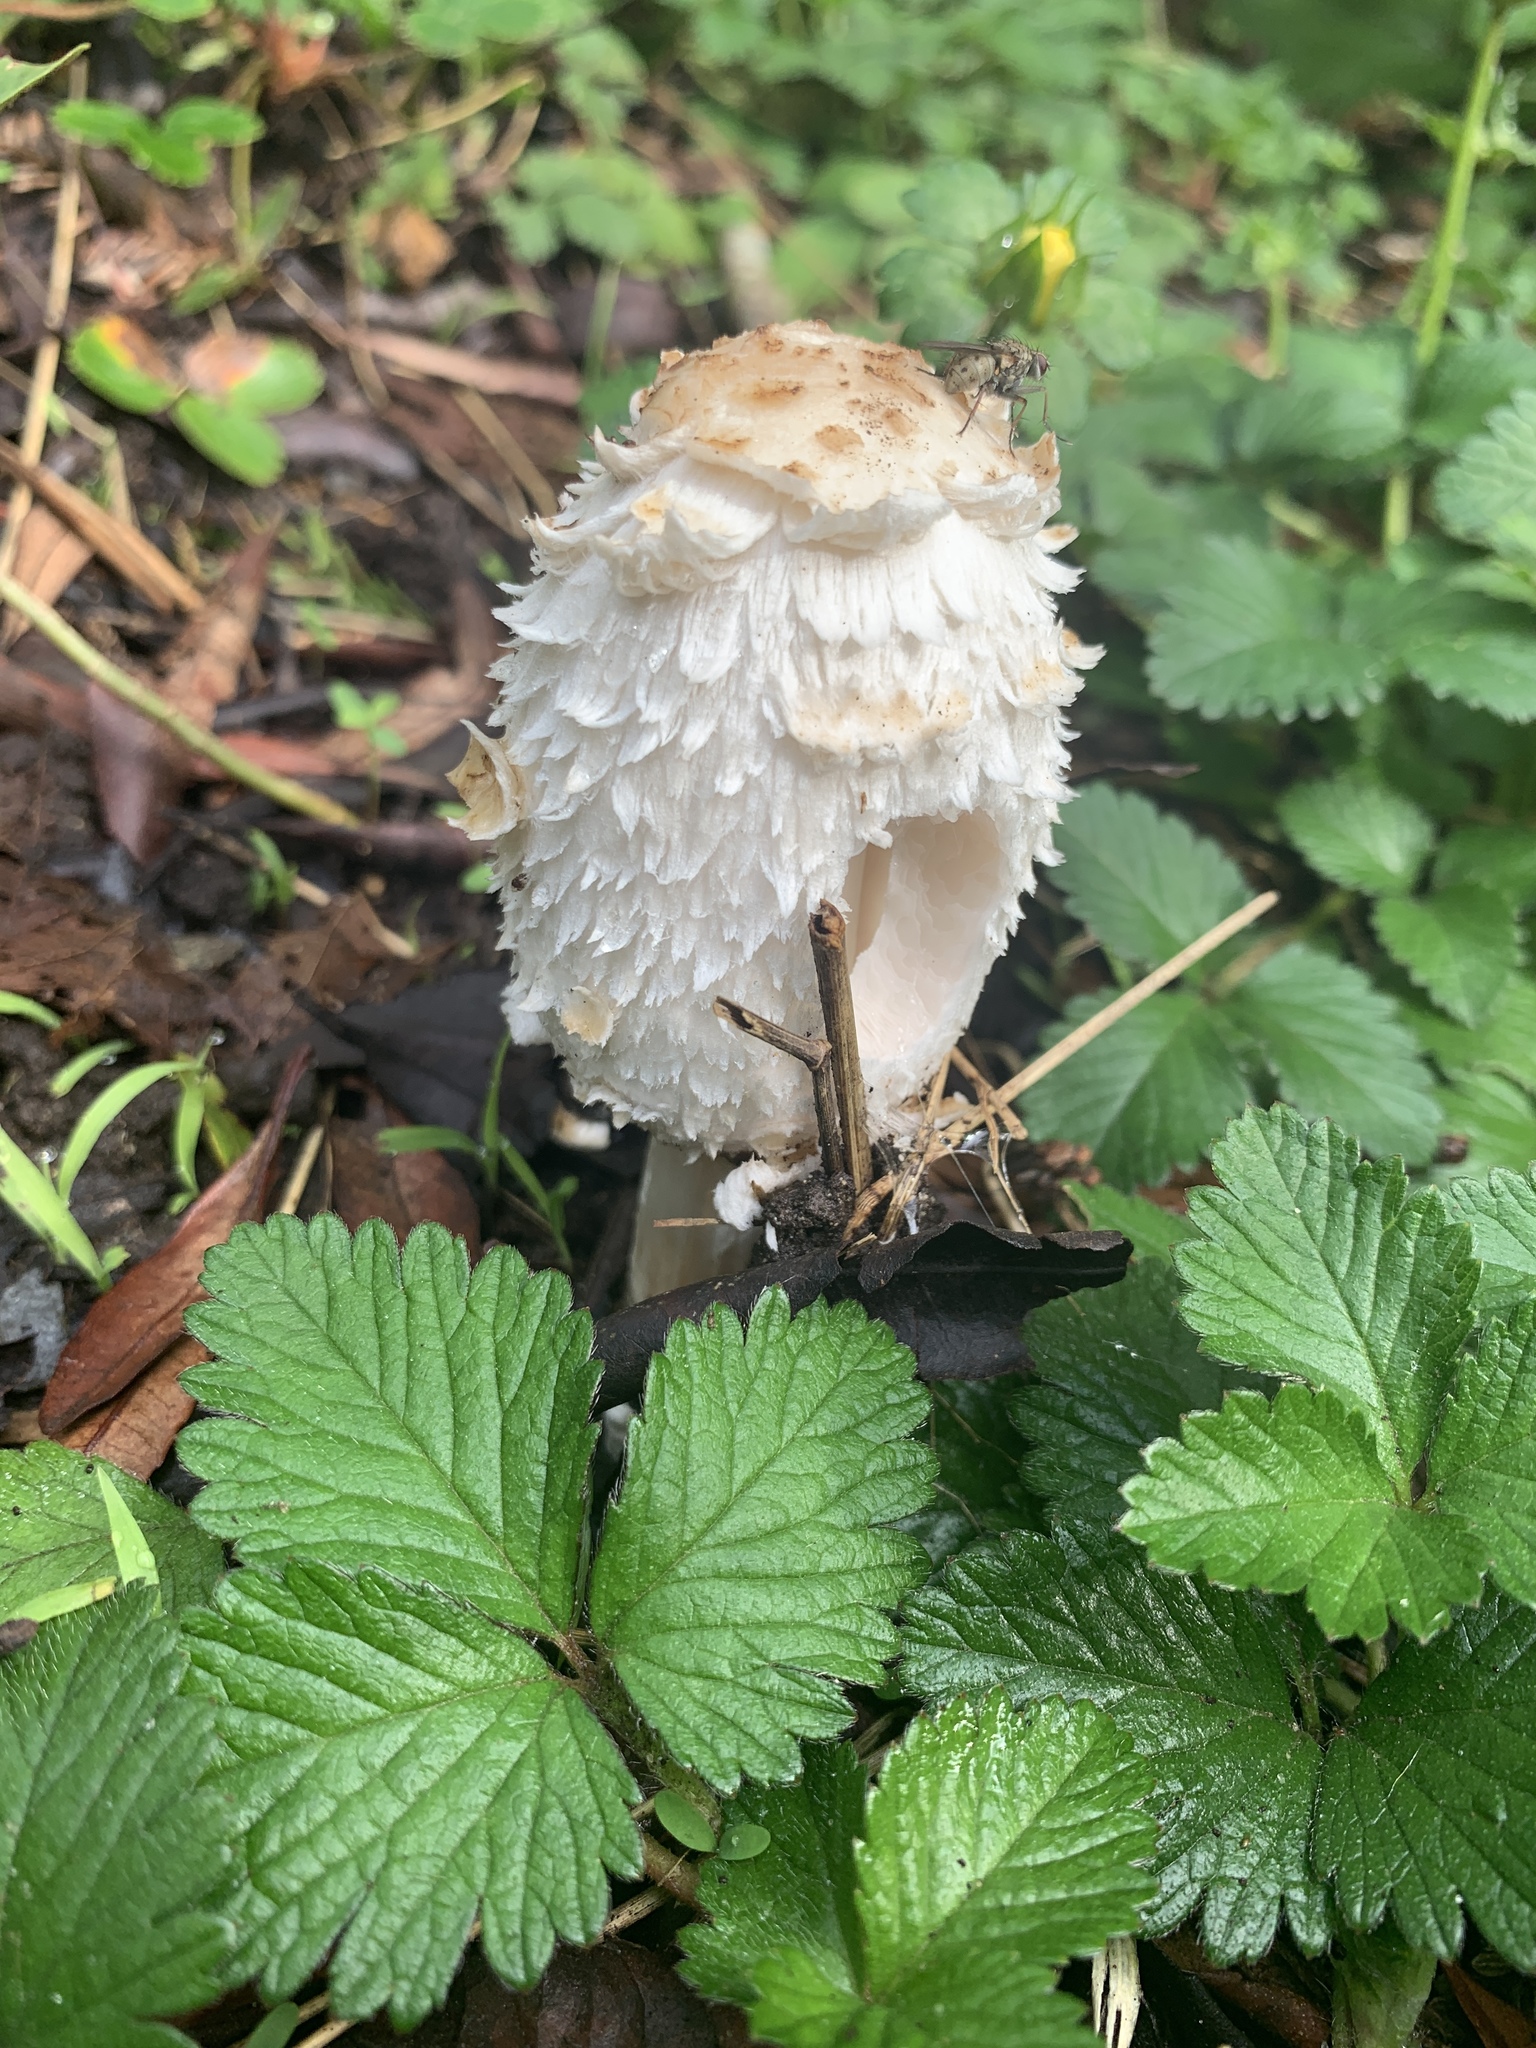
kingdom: Fungi
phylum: Basidiomycota
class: Agaricomycetes
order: Agaricales
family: Agaricaceae
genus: Coprinus
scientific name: Coprinus comatus
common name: Lawyer's wig
